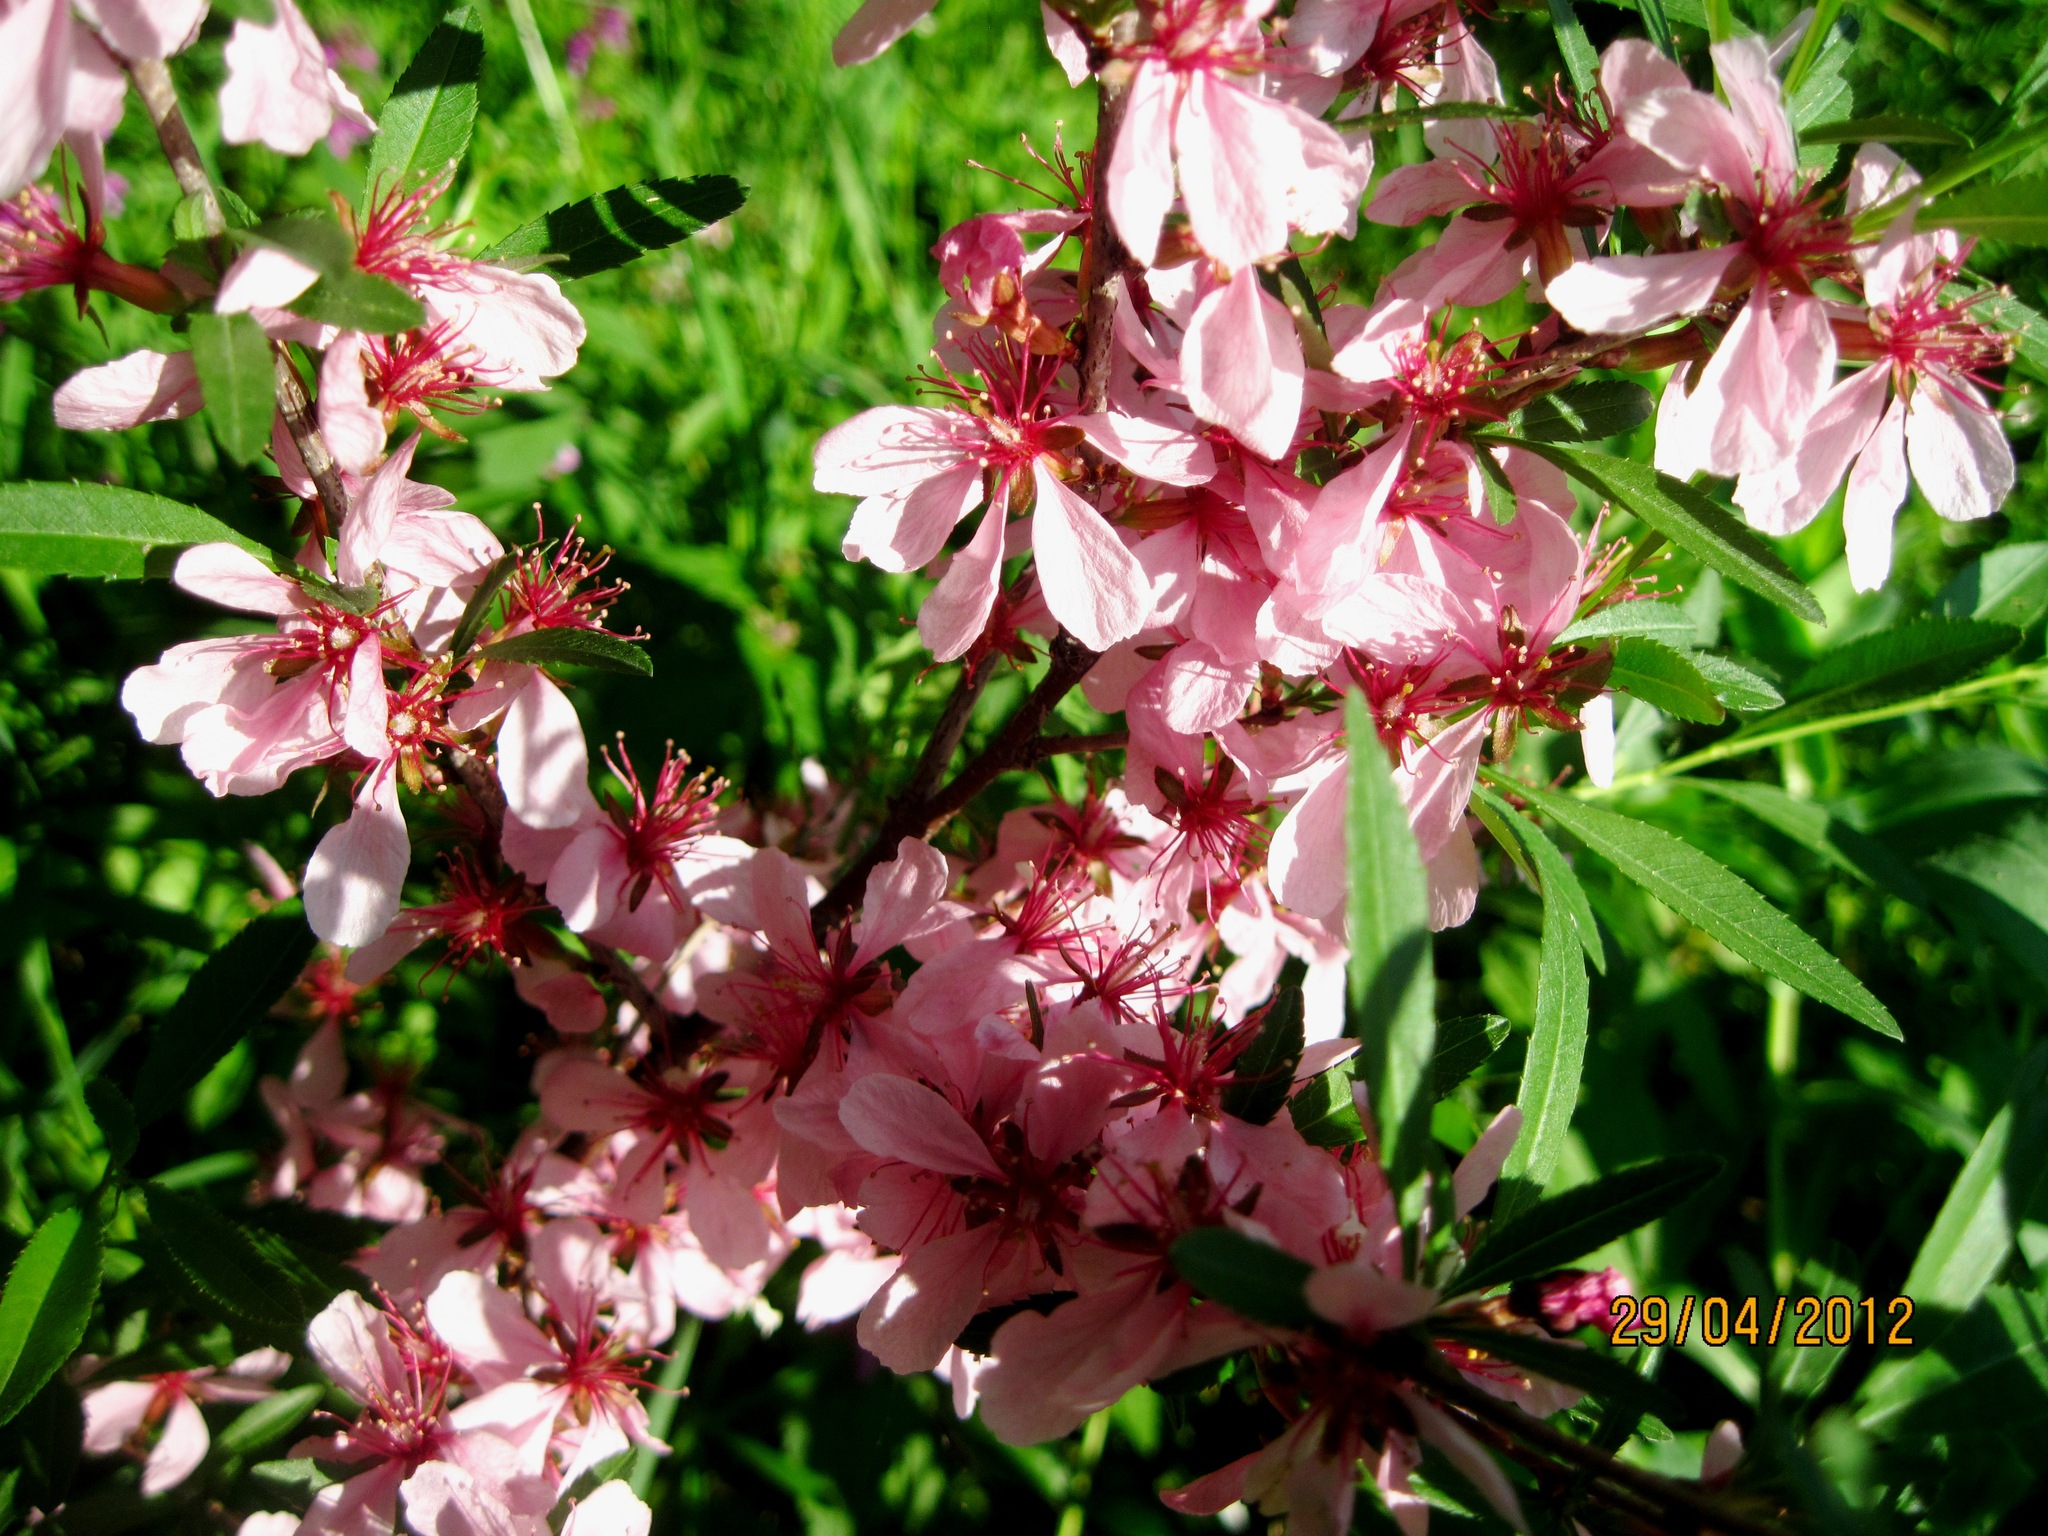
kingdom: Plantae
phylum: Tracheophyta
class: Magnoliopsida
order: Rosales
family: Rosaceae
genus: Prunus
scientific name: Prunus tenella
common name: Dwarf russian almond
